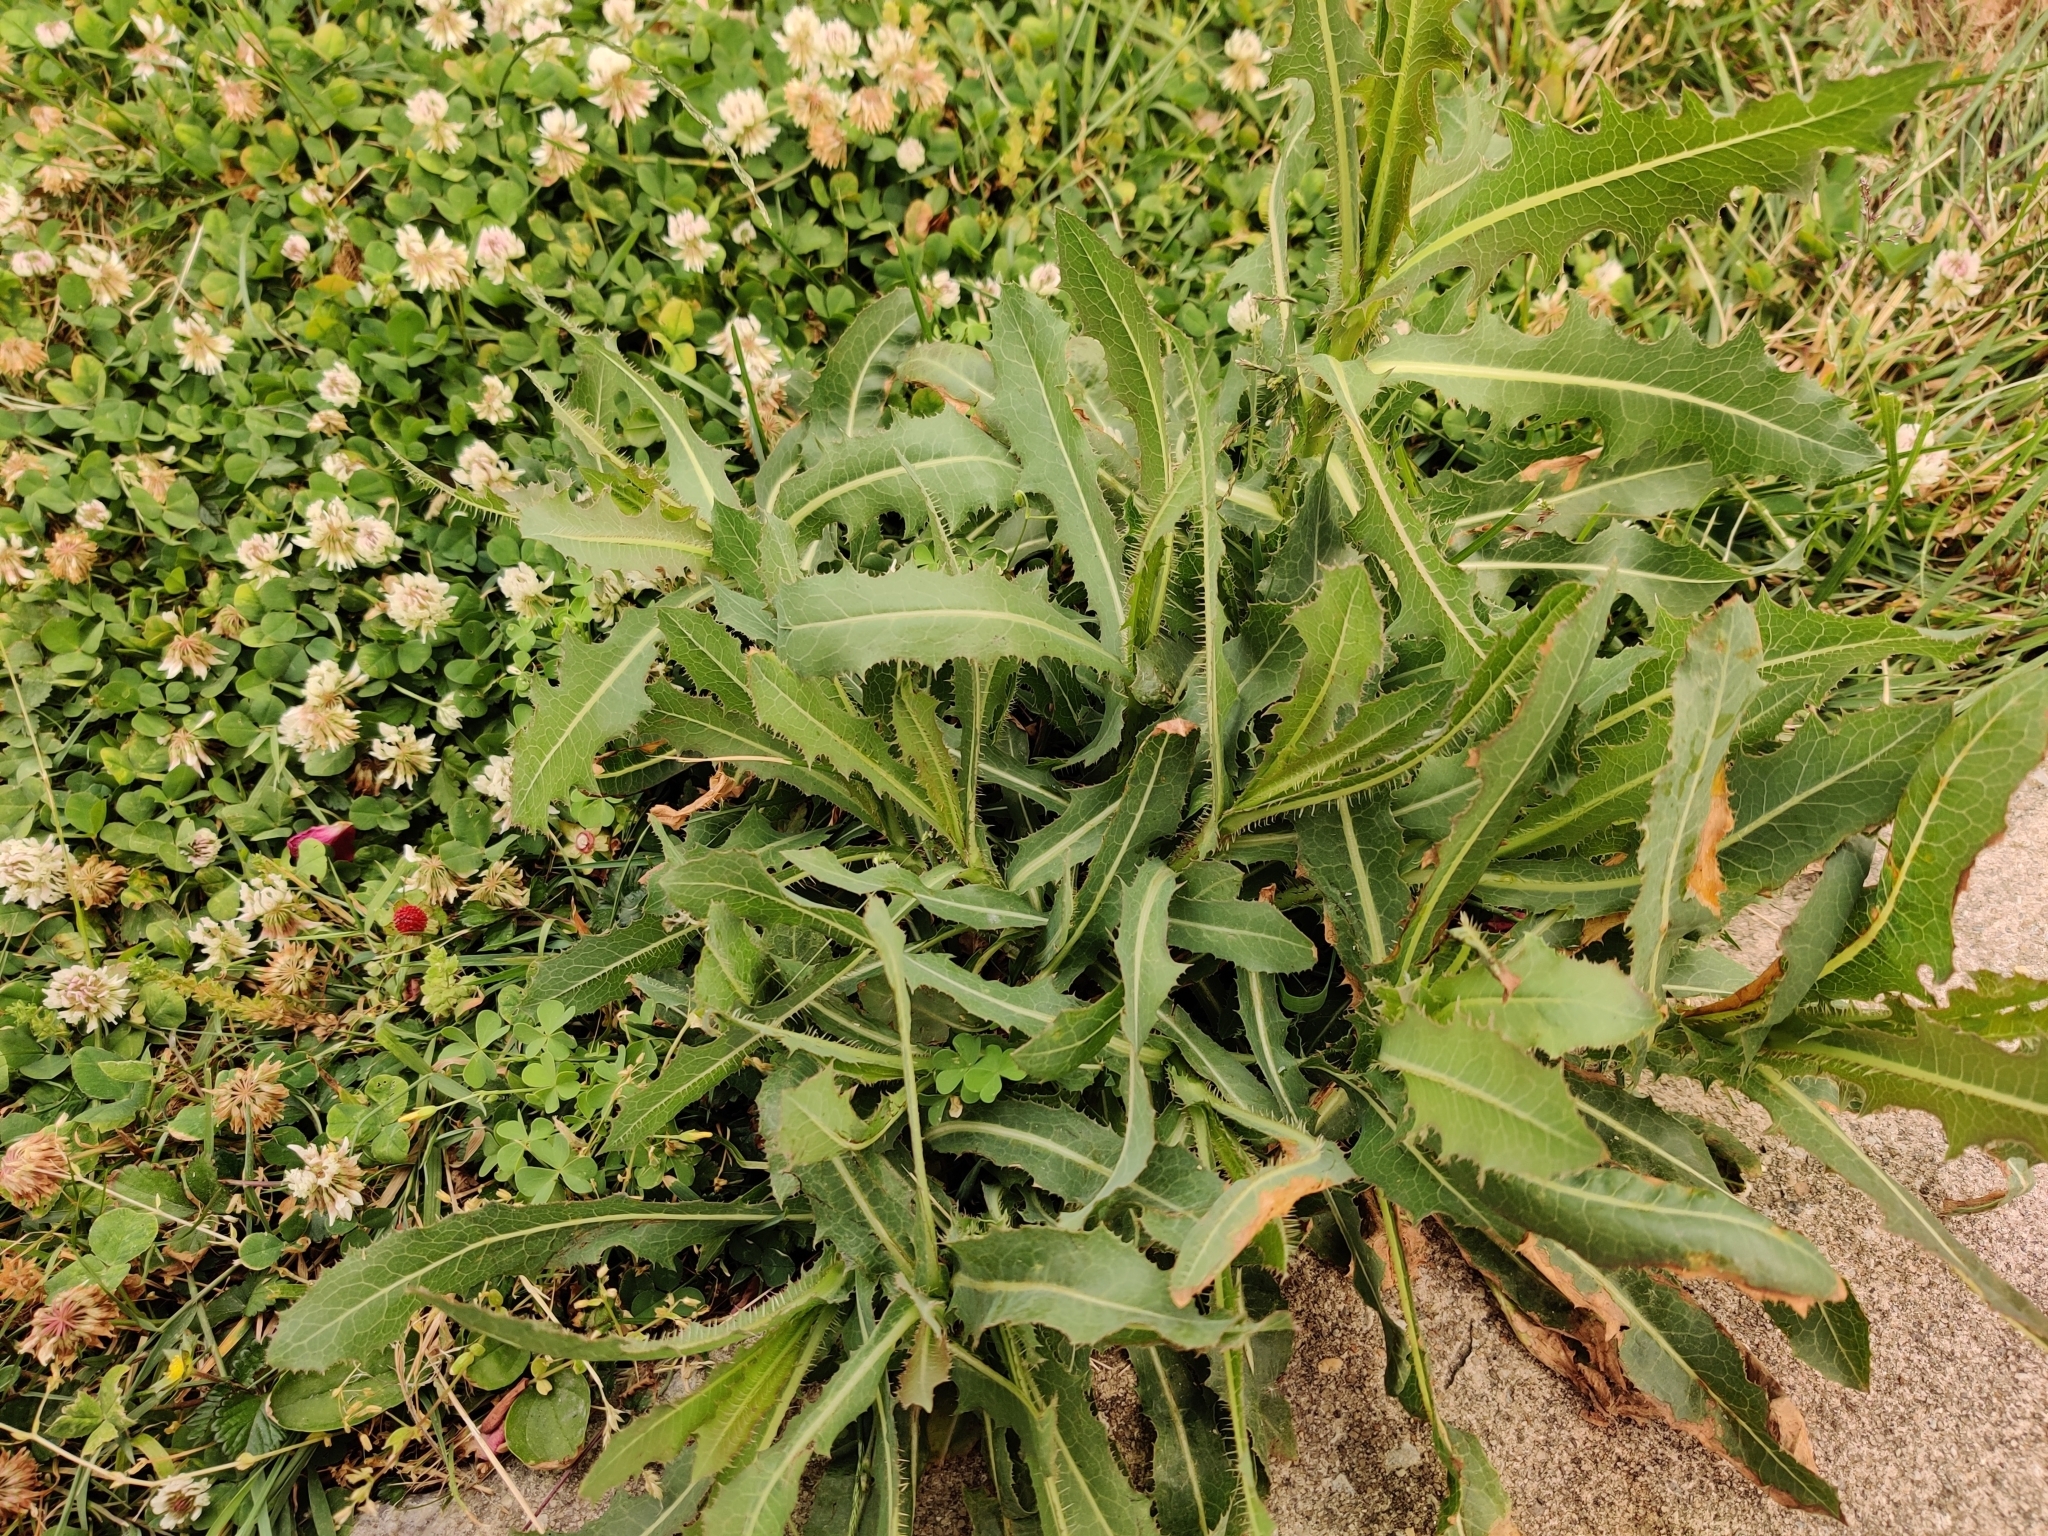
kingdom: Plantae
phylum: Tracheophyta
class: Magnoliopsida
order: Asterales
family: Asteraceae
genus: Lactuca
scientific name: Lactuca serriola
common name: Prickly lettuce
